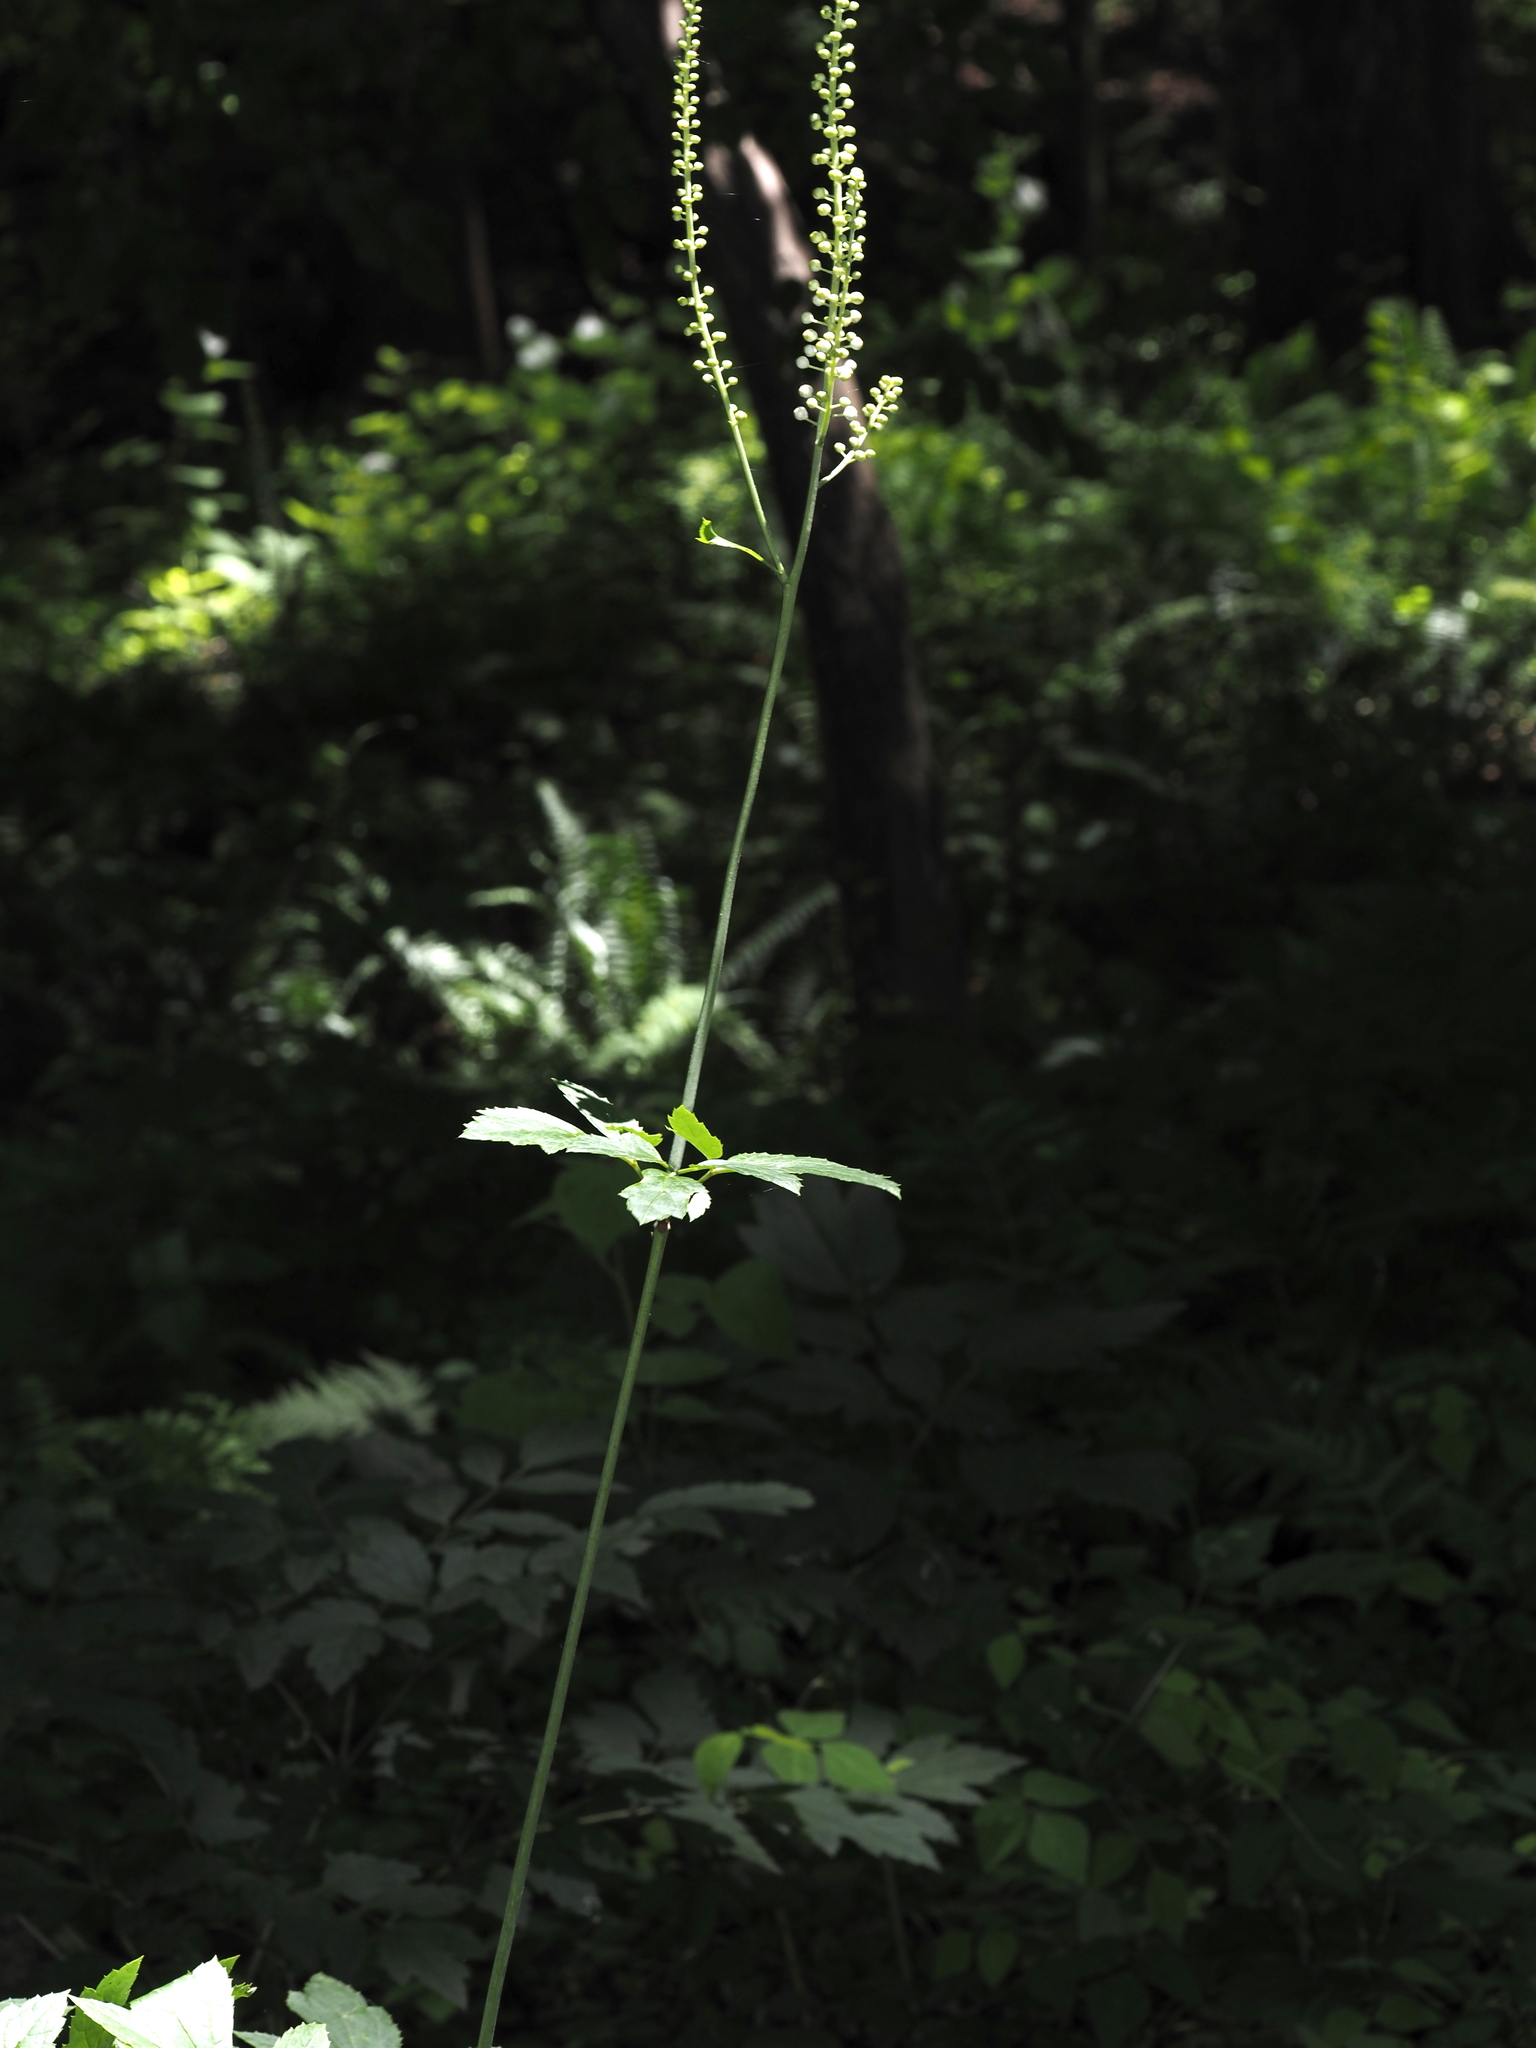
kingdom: Plantae
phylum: Tracheophyta
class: Magnoliopsida
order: Ranunculales
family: Ranunculaceae
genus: Actaea
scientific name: Actaea racemosa
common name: Black cohosh
